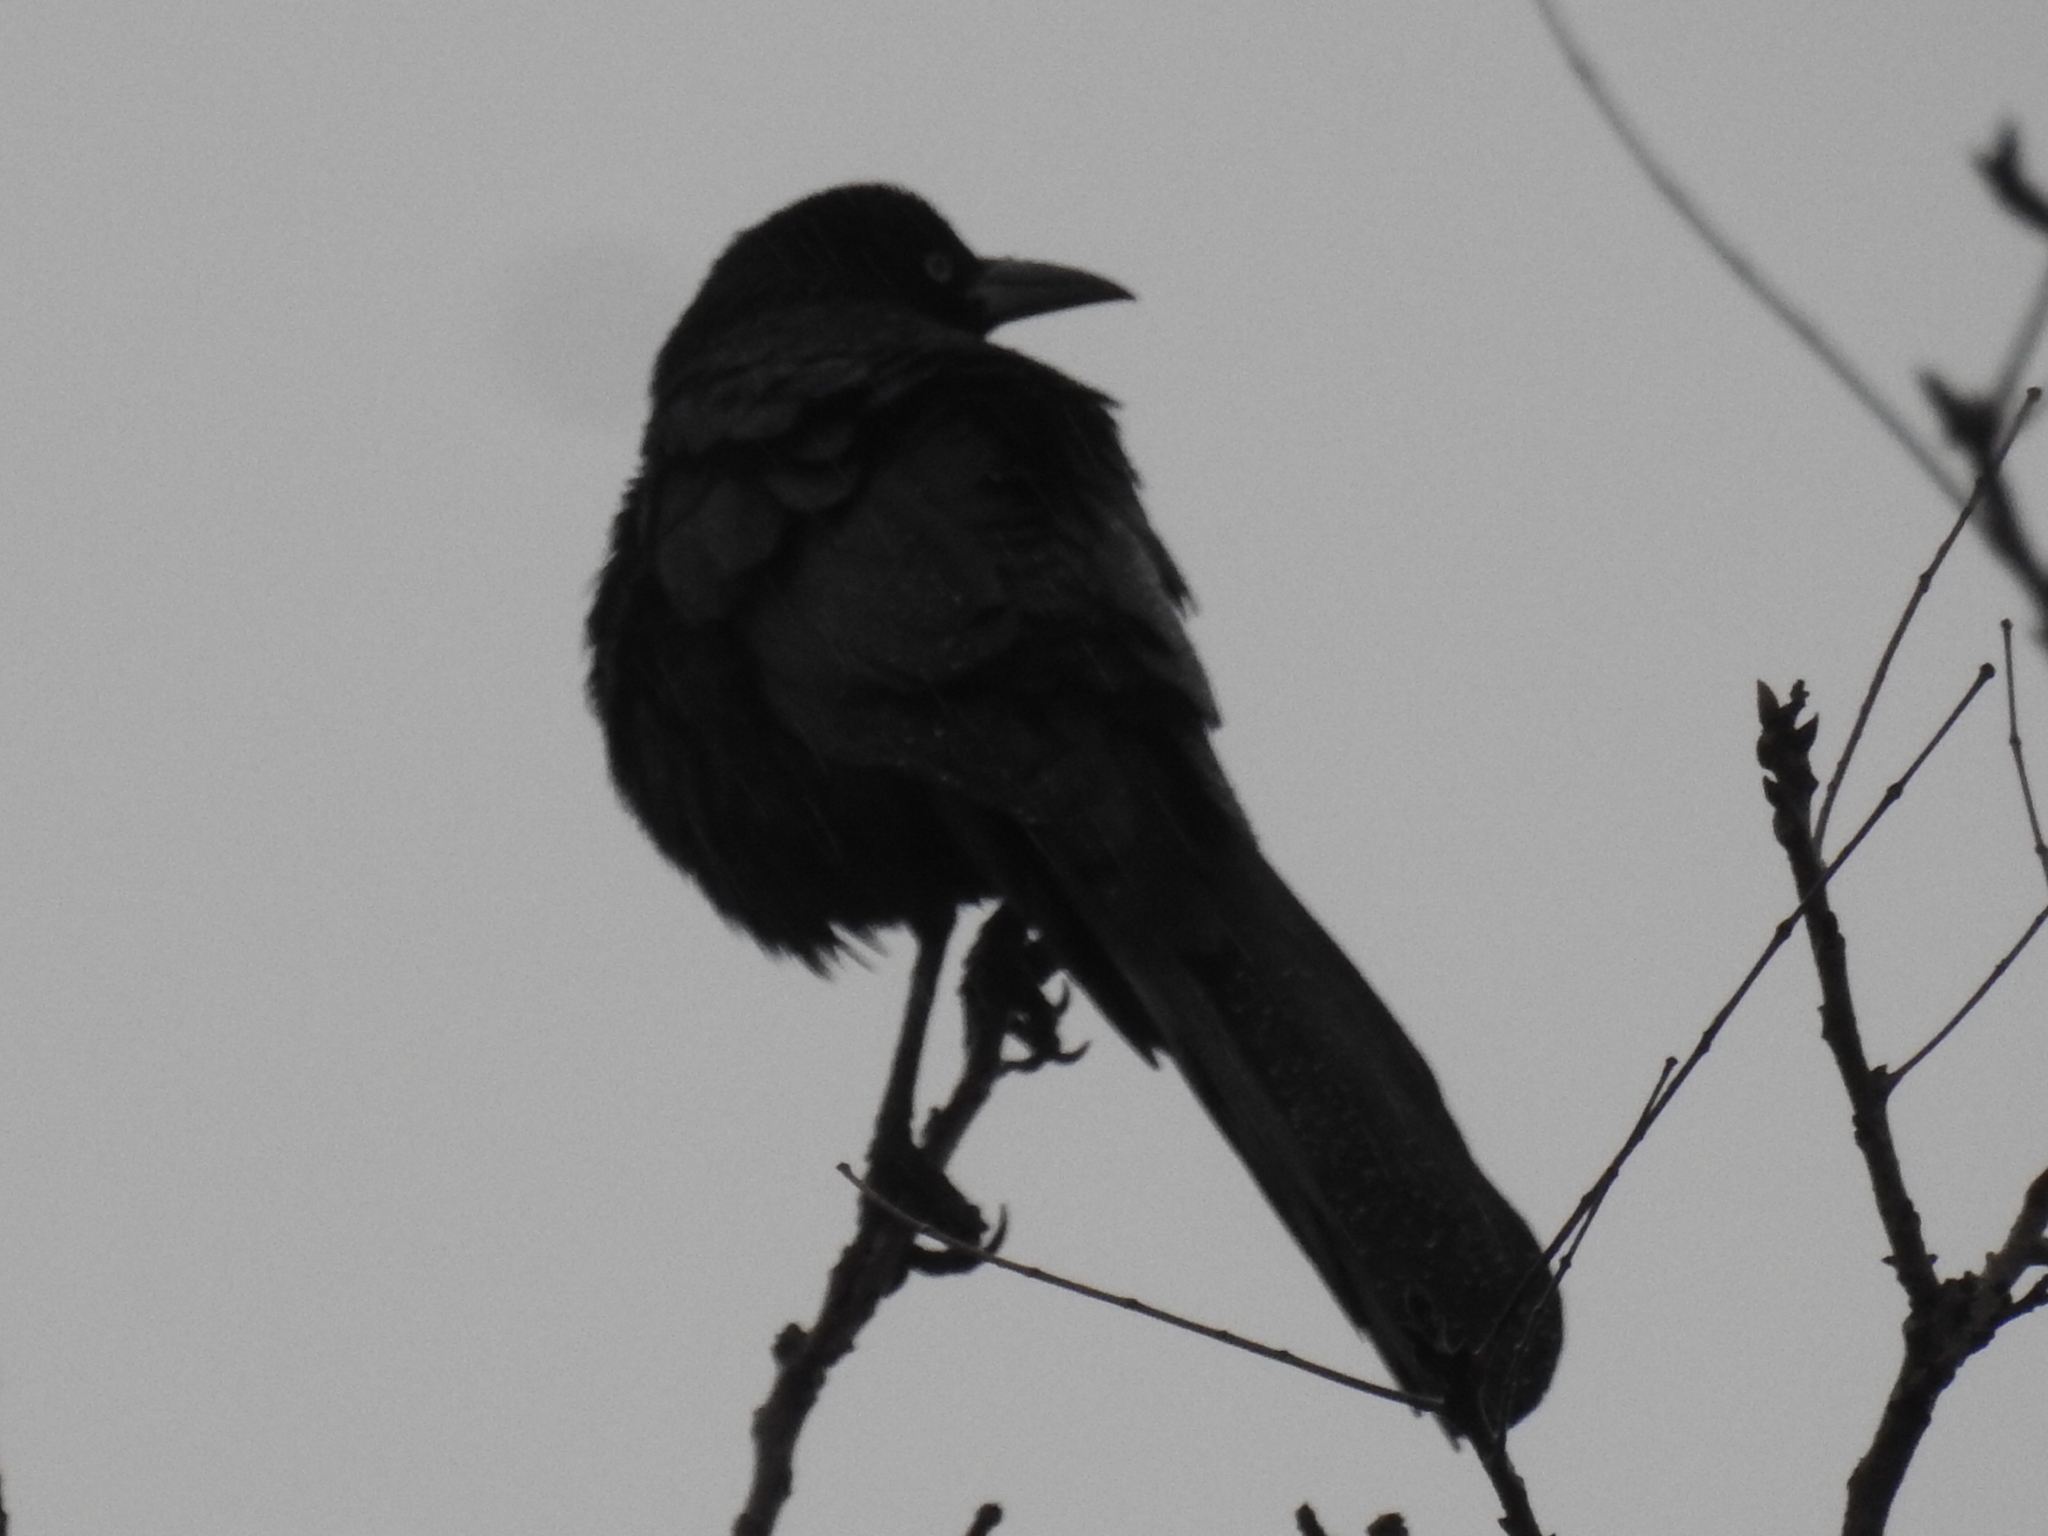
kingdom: Animalia
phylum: Chordata
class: Aves
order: Passeriformes
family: Icteridae
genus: Quiscalus
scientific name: Quiscalus mexicanus
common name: Great-tailed grackle
